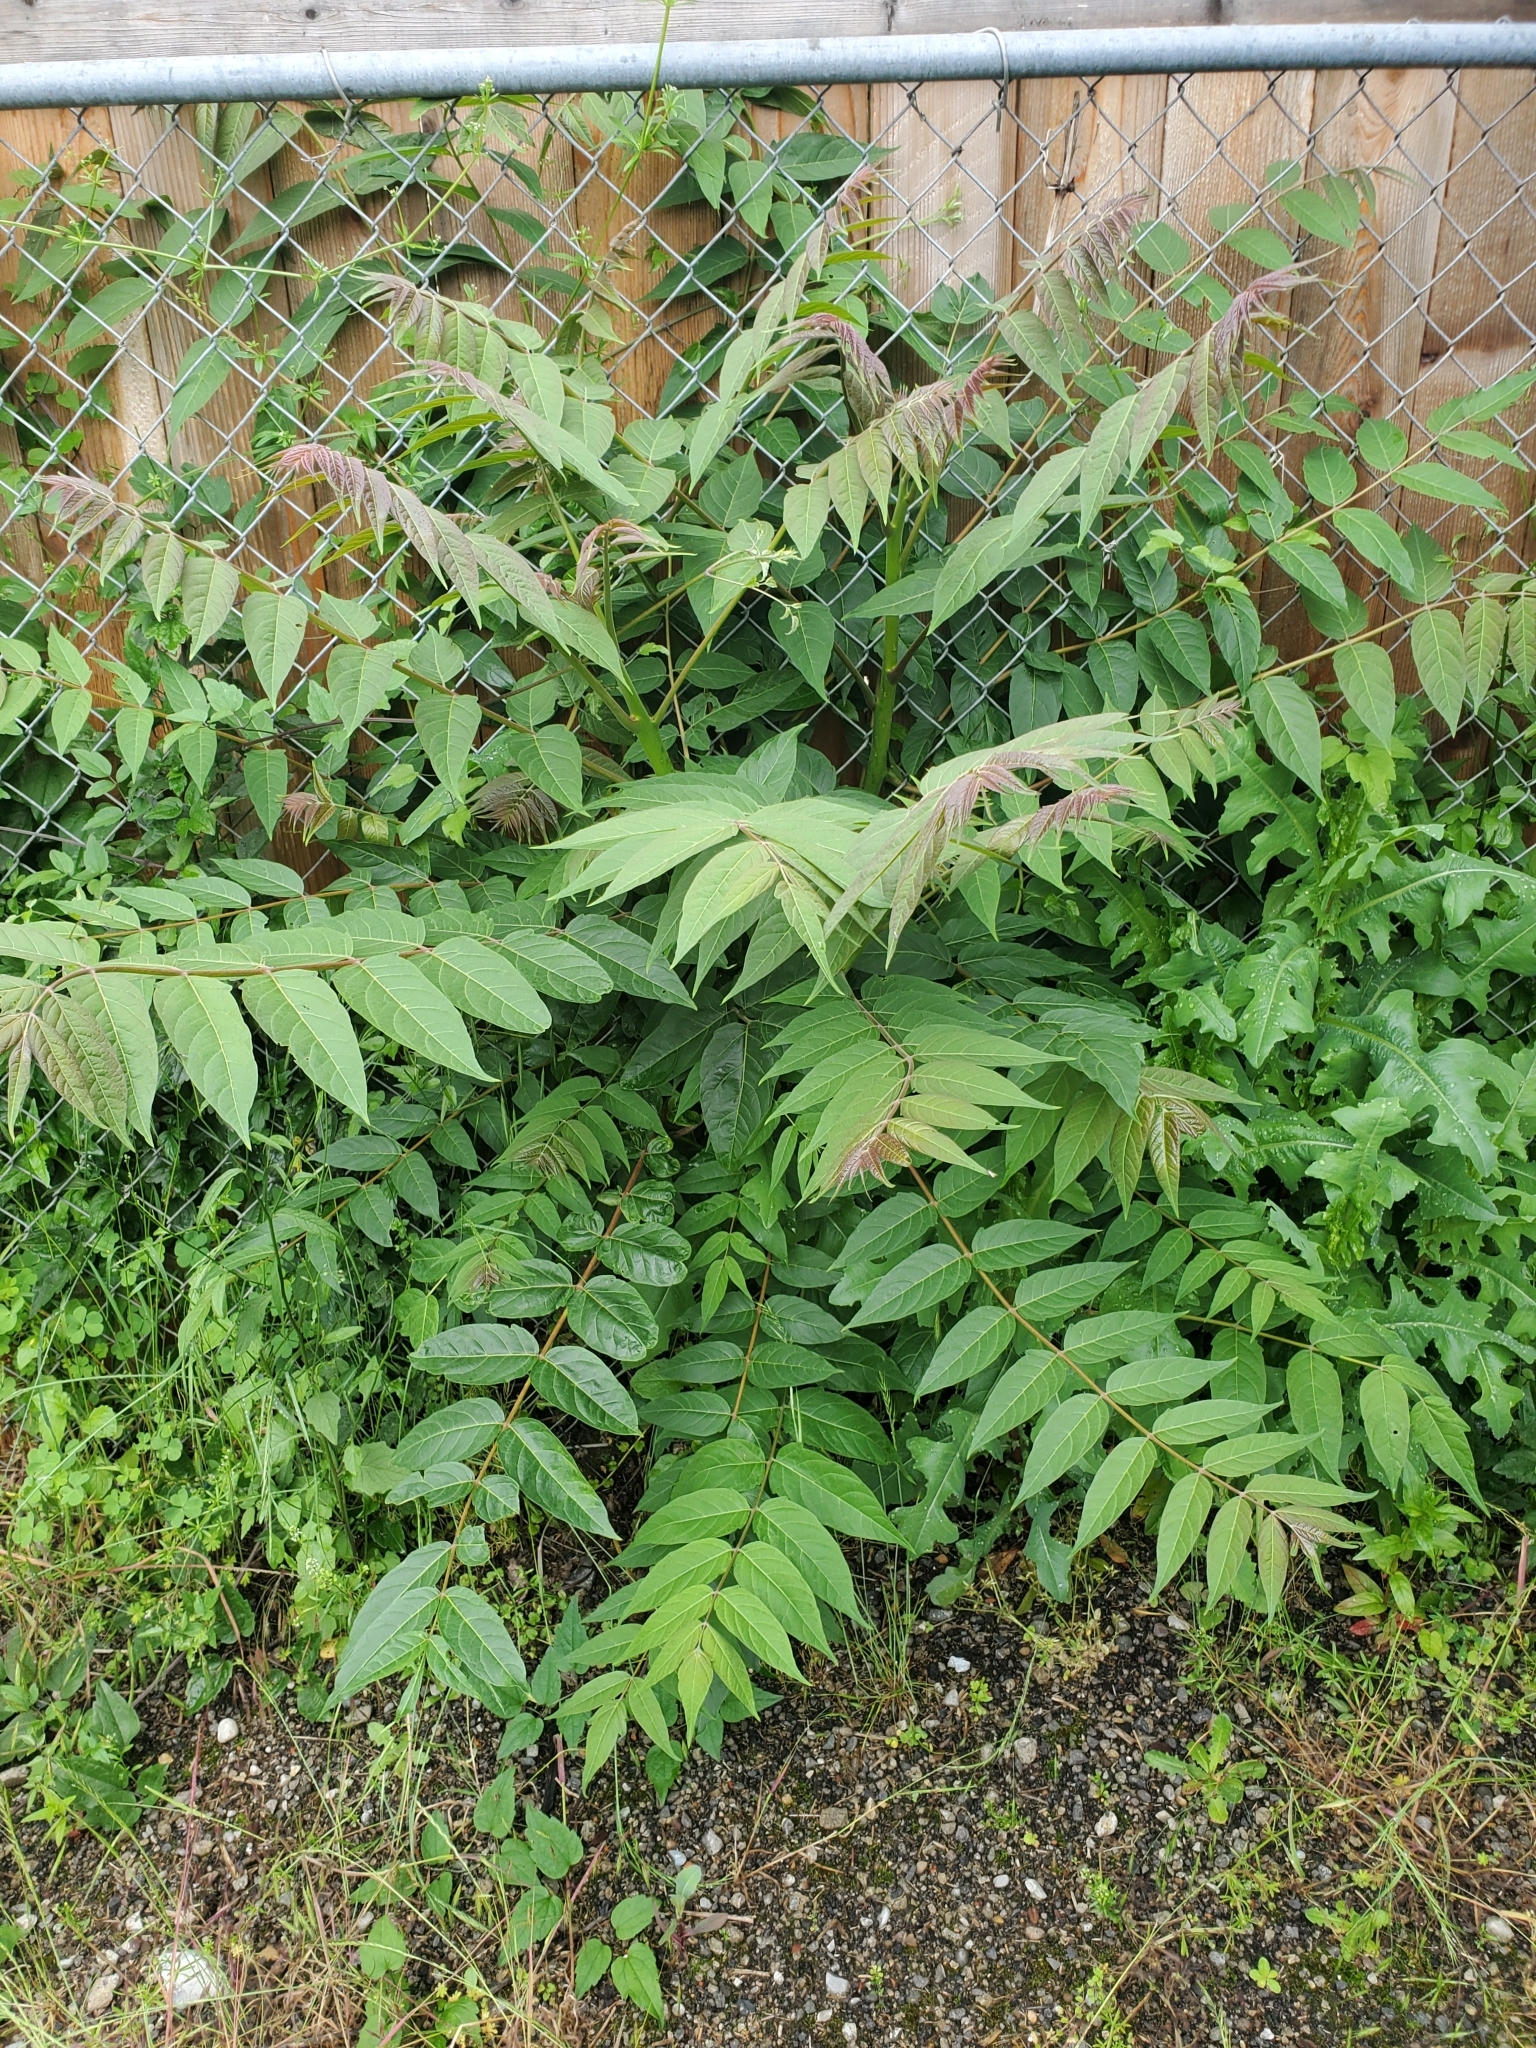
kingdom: Plantae
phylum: Tracheophyta
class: Magnoliopsida
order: Sapindales
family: Simaroubaceae
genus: Ailanthus
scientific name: Ailanthus altissima
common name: Tree-of-heaven
